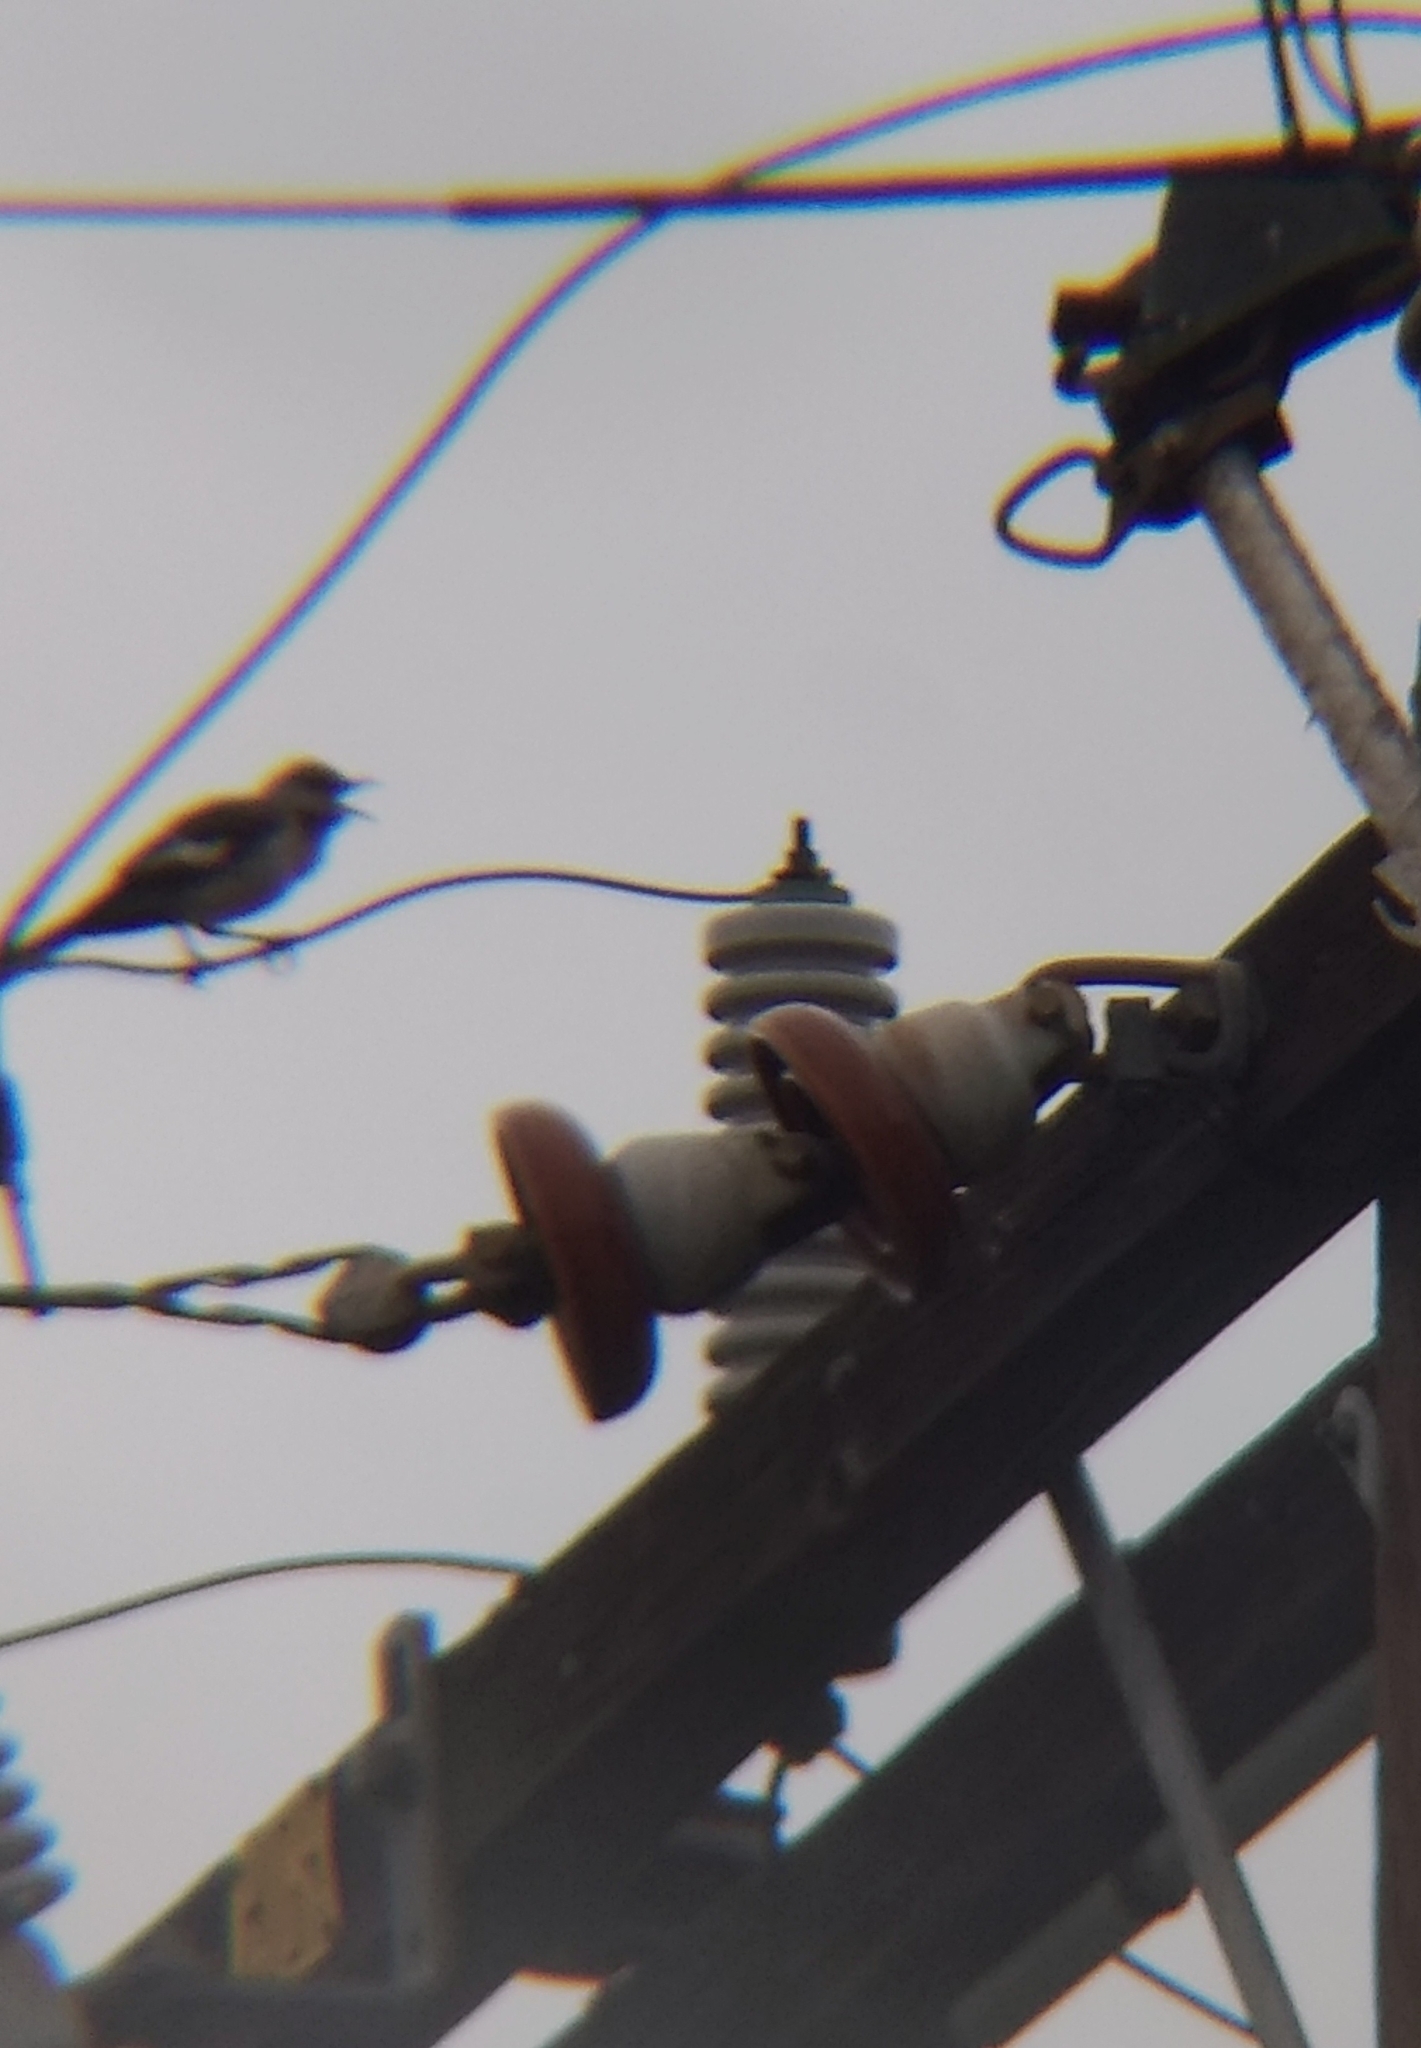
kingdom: Animalia
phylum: Chordata
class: Aves
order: Passeriformes
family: Mimidae
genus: Mimus
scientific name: Mimus polyglottos
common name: Northern mockingbird
